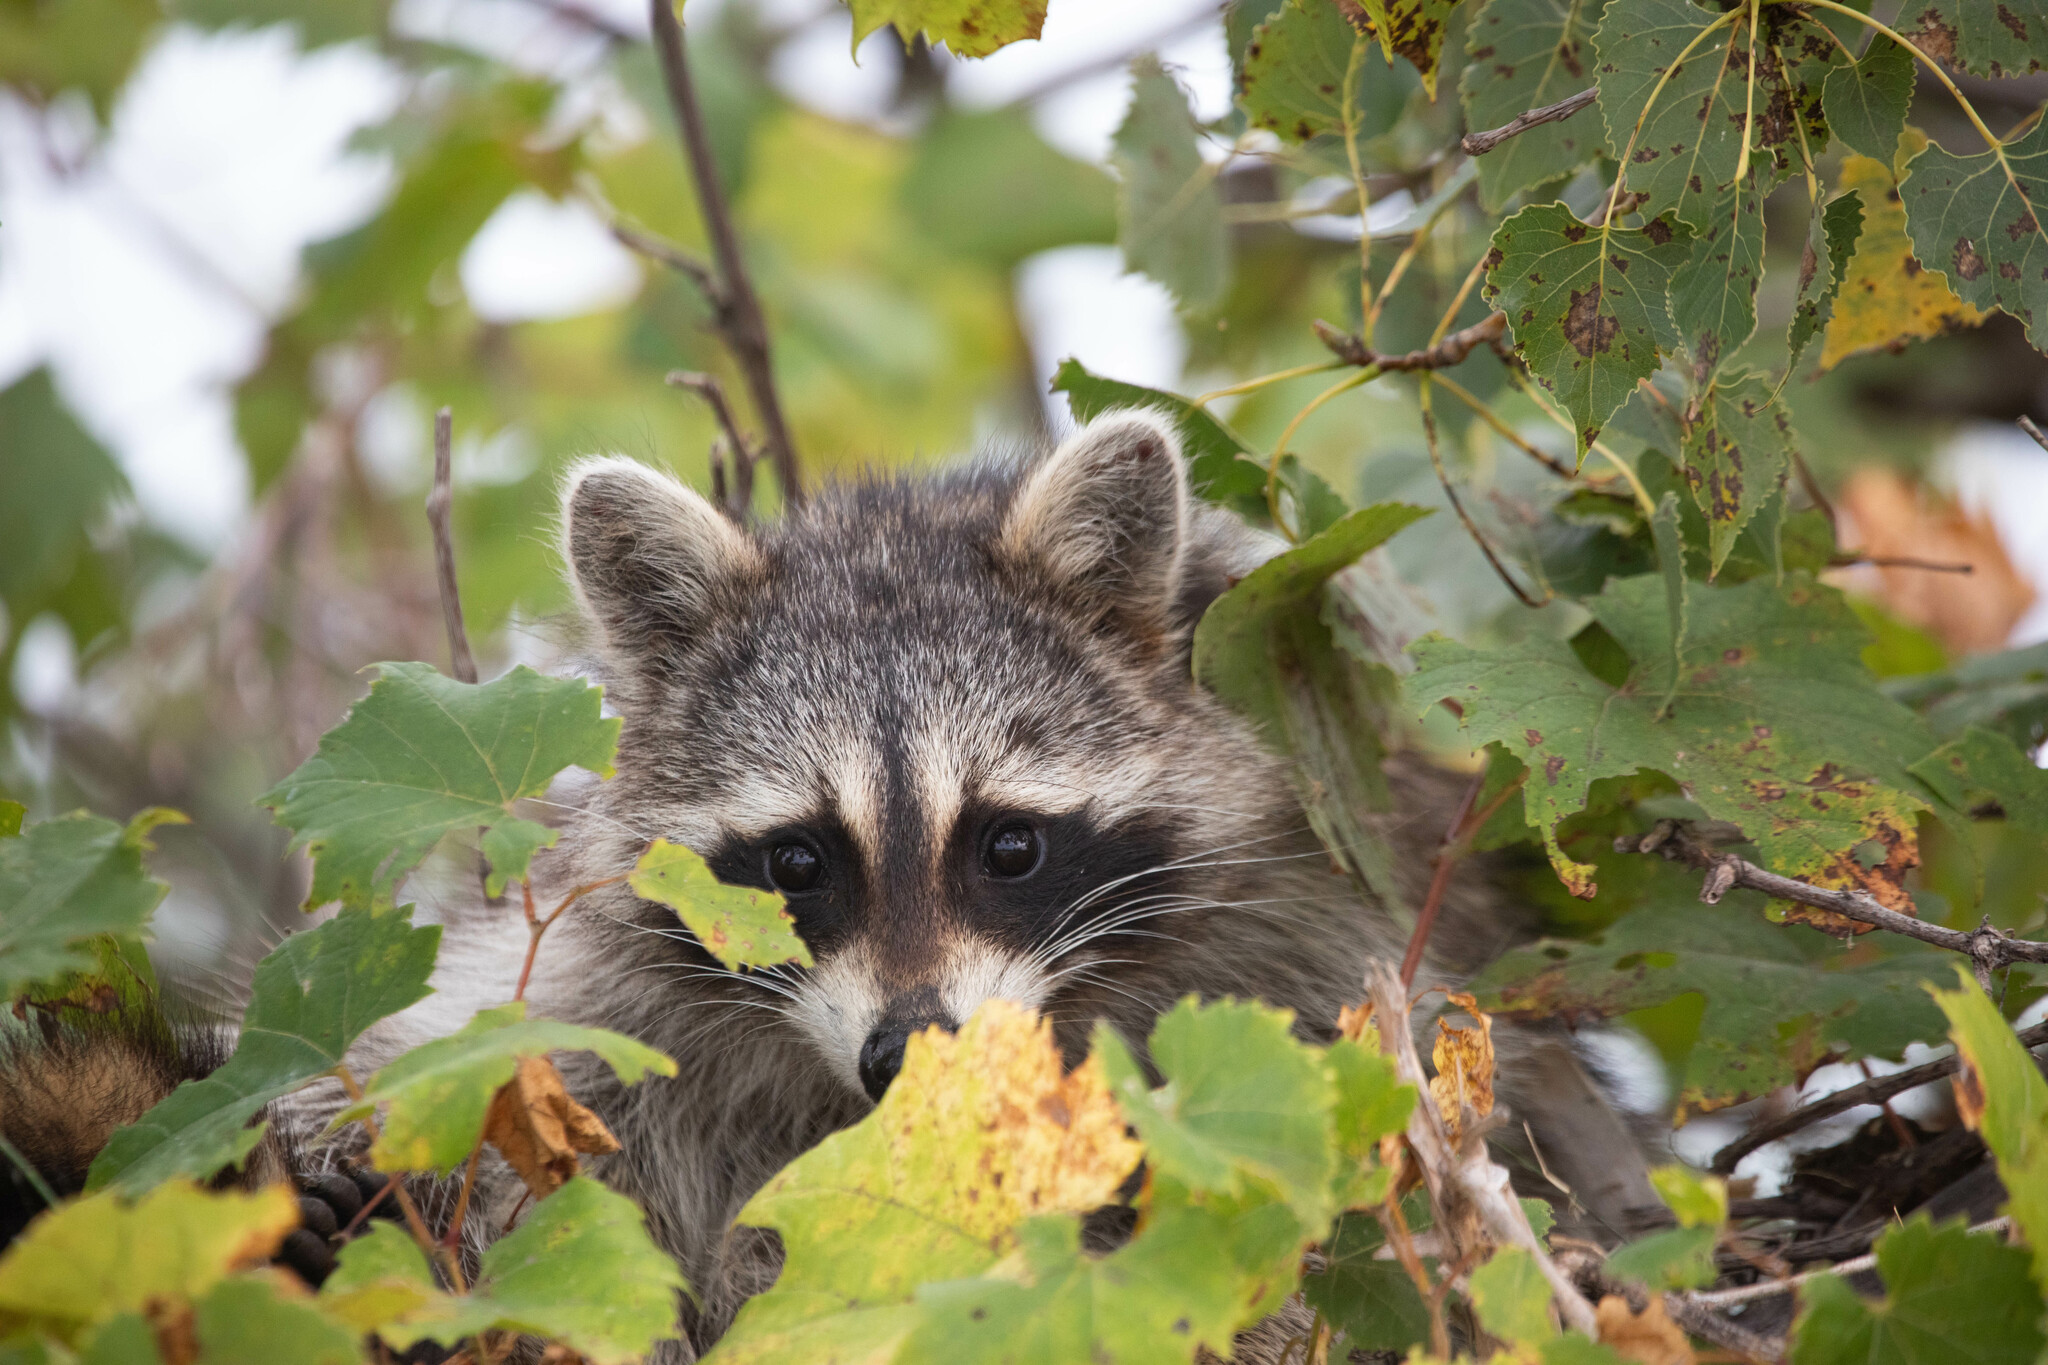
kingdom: Animalia
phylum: Chordata
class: Mammalia
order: Carnivora
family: Procyonidae
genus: Procyon
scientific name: Procyon lotor
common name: Raccoon
